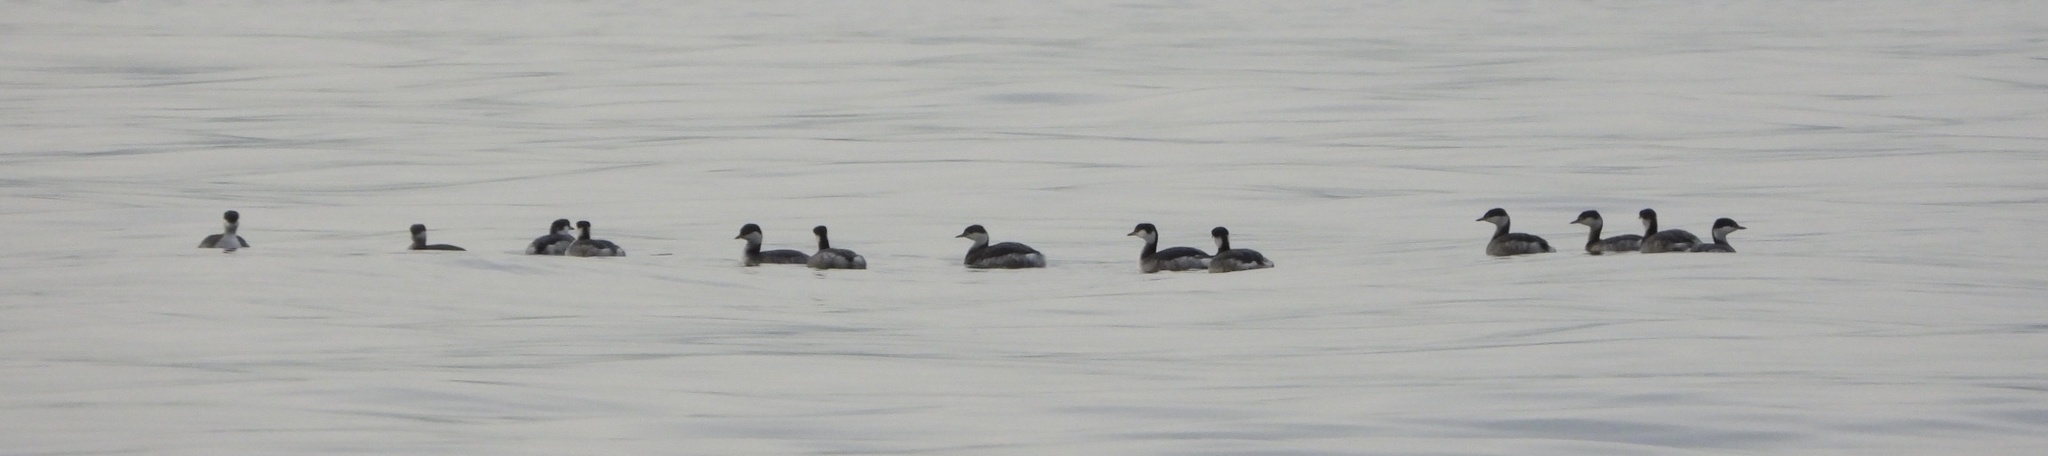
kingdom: Animalia
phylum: Chordata
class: Aves
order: Podicipediformes
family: Podicipedidae
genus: Podiceps
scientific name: Podiceps auritus
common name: Horned grebe
